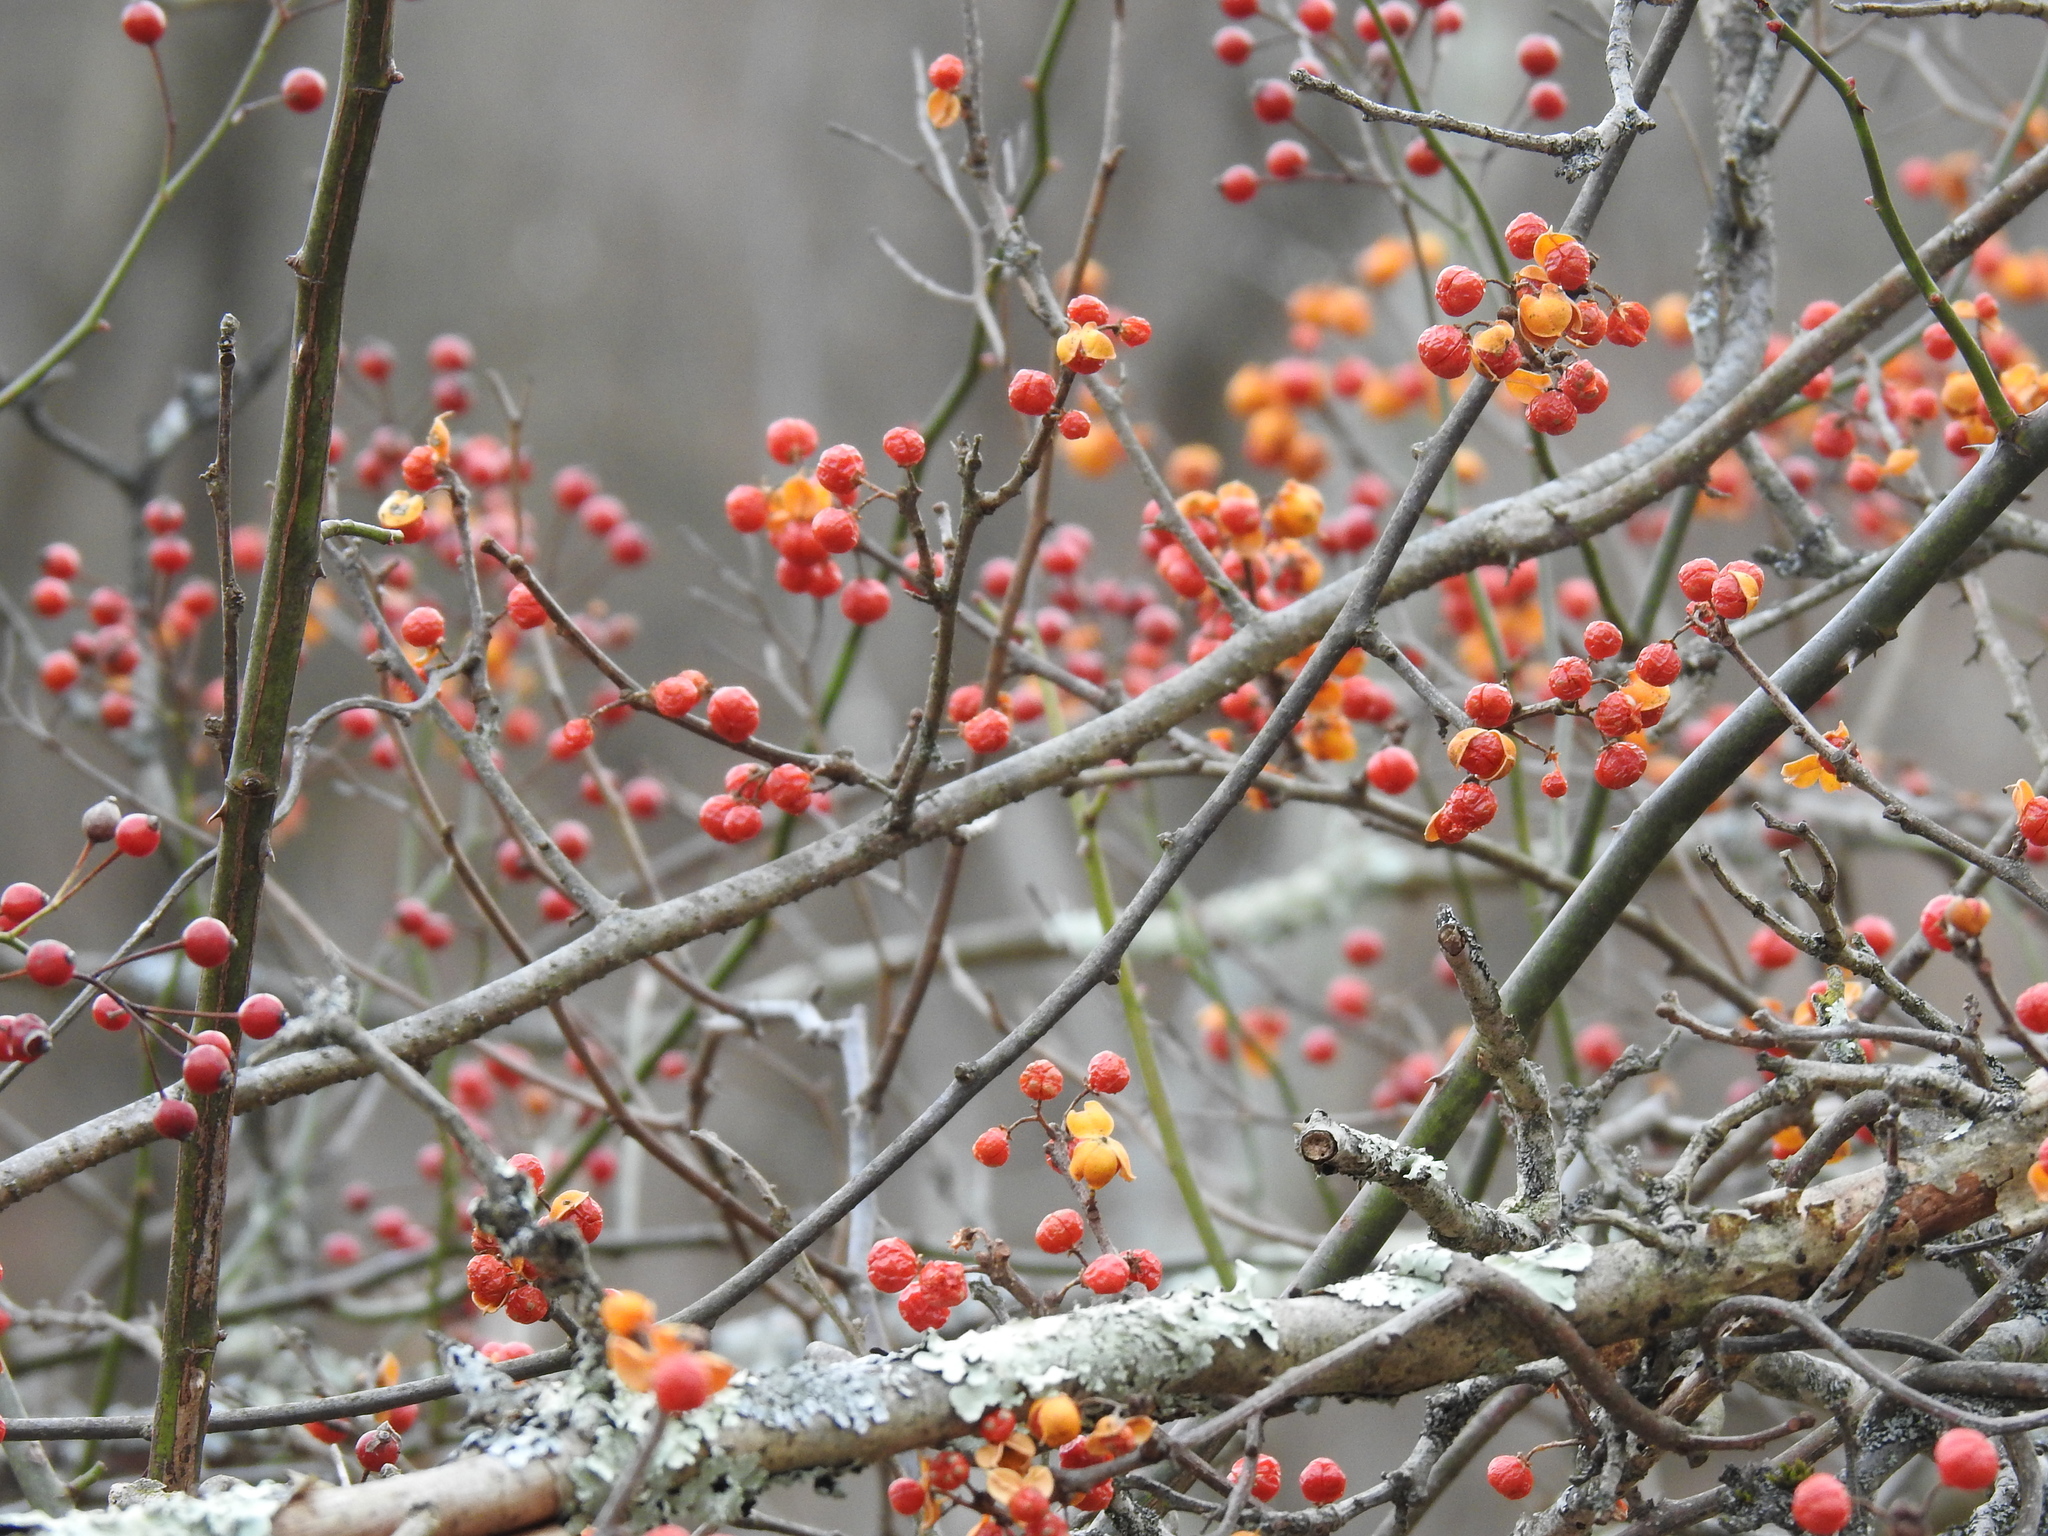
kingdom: Plantae
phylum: Tracheophyta
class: Magnoliopsida
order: Celastrales
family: Celastraceae
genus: Celastrus
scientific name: Celastrus orbiculatus
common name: Oriental bittersweet
